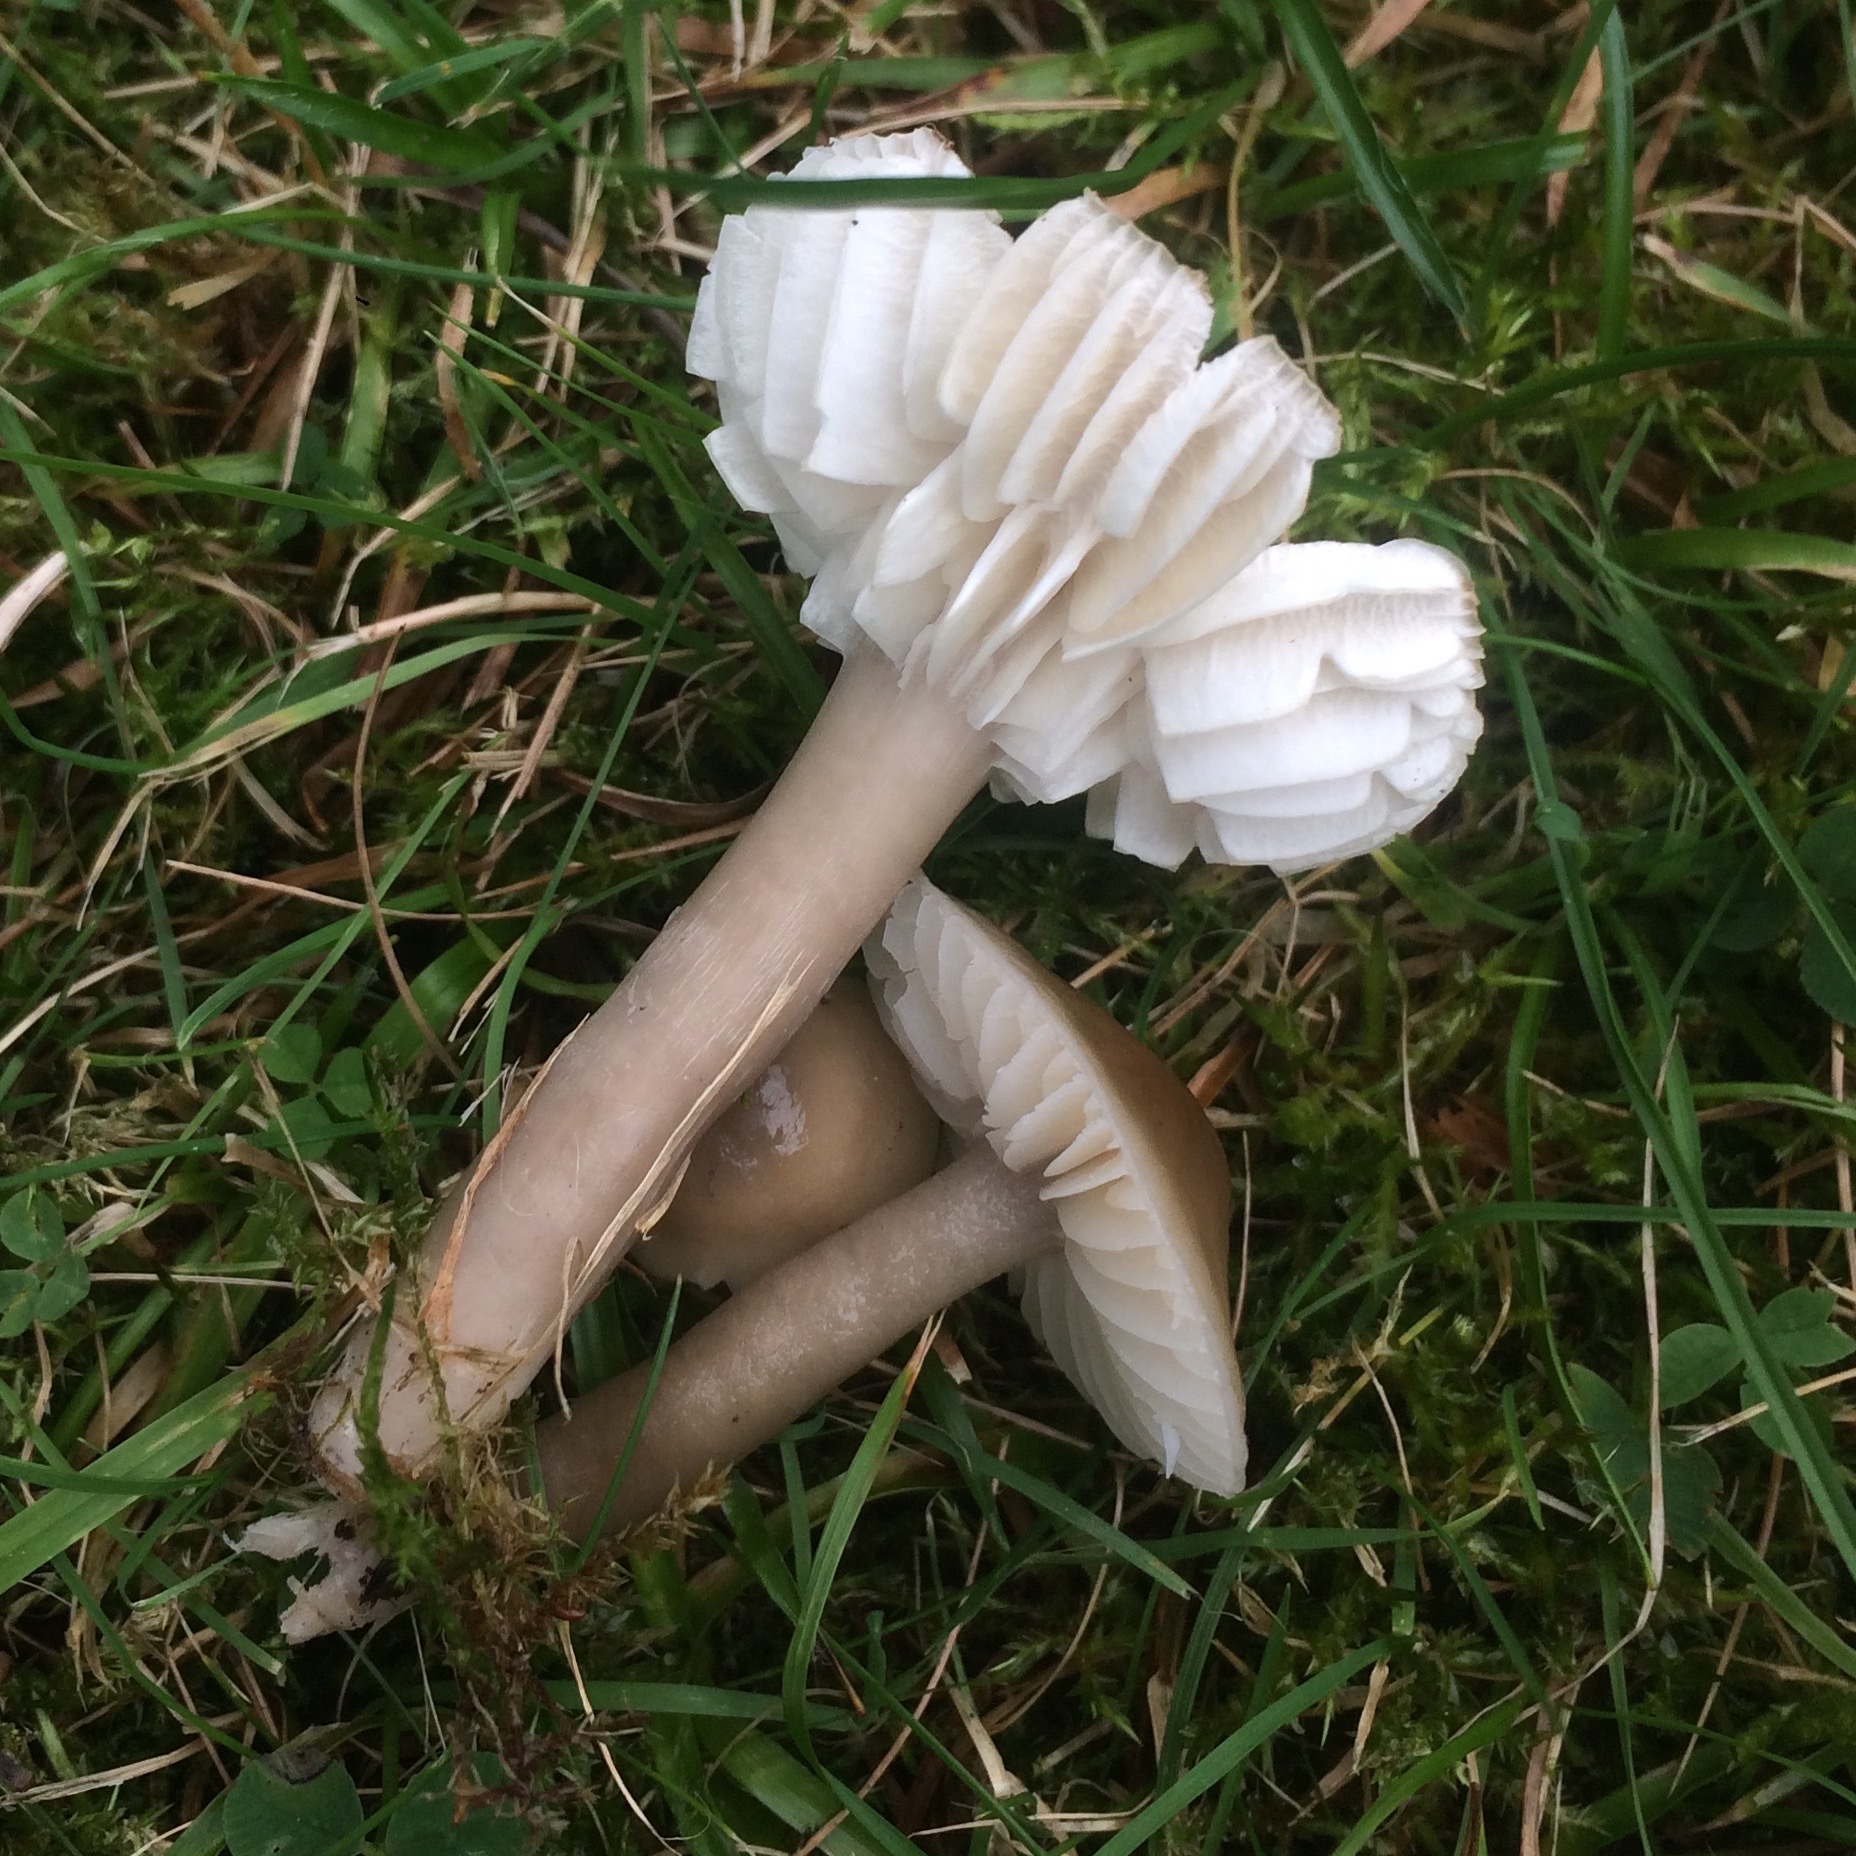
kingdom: Fungi
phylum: Basidiomycota
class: Agaricomycetes
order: Agaricales
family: Hygrophoraceae
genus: Gliophorus
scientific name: Gliophorus irrigatus
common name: Slimy waxcap
